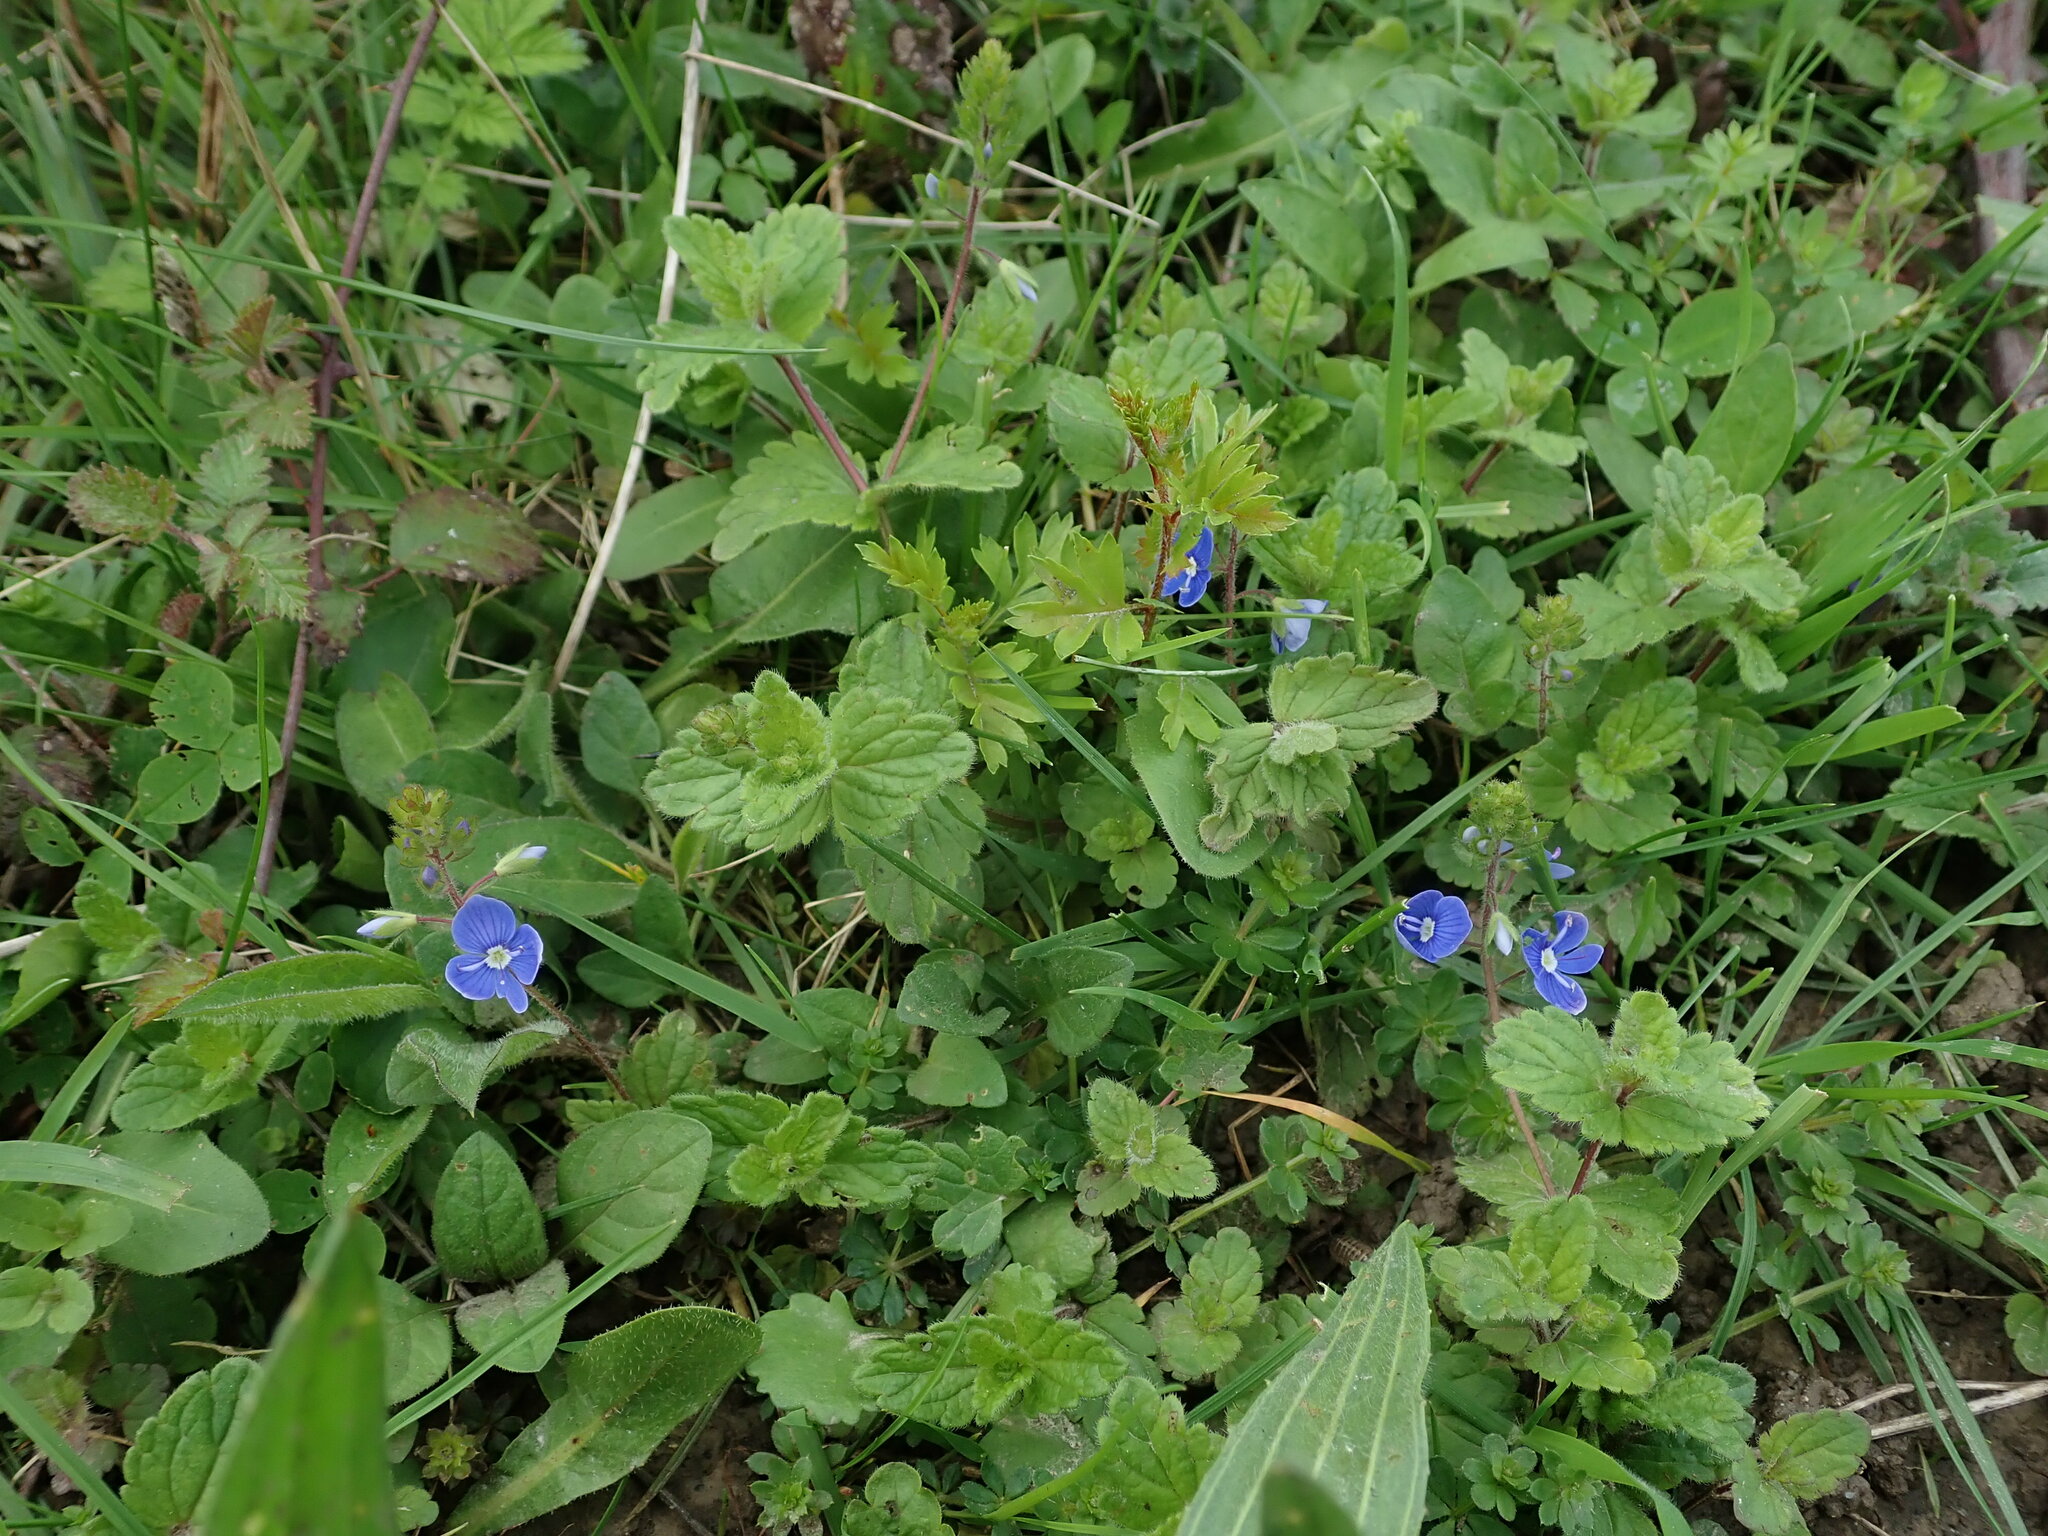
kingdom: Plantae
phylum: Tracheophyta
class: Magnoliopsida
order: Lamiales
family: Plantaginaceae
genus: Veronica
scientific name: Veronica chamaedrys
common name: Germander speedwell
